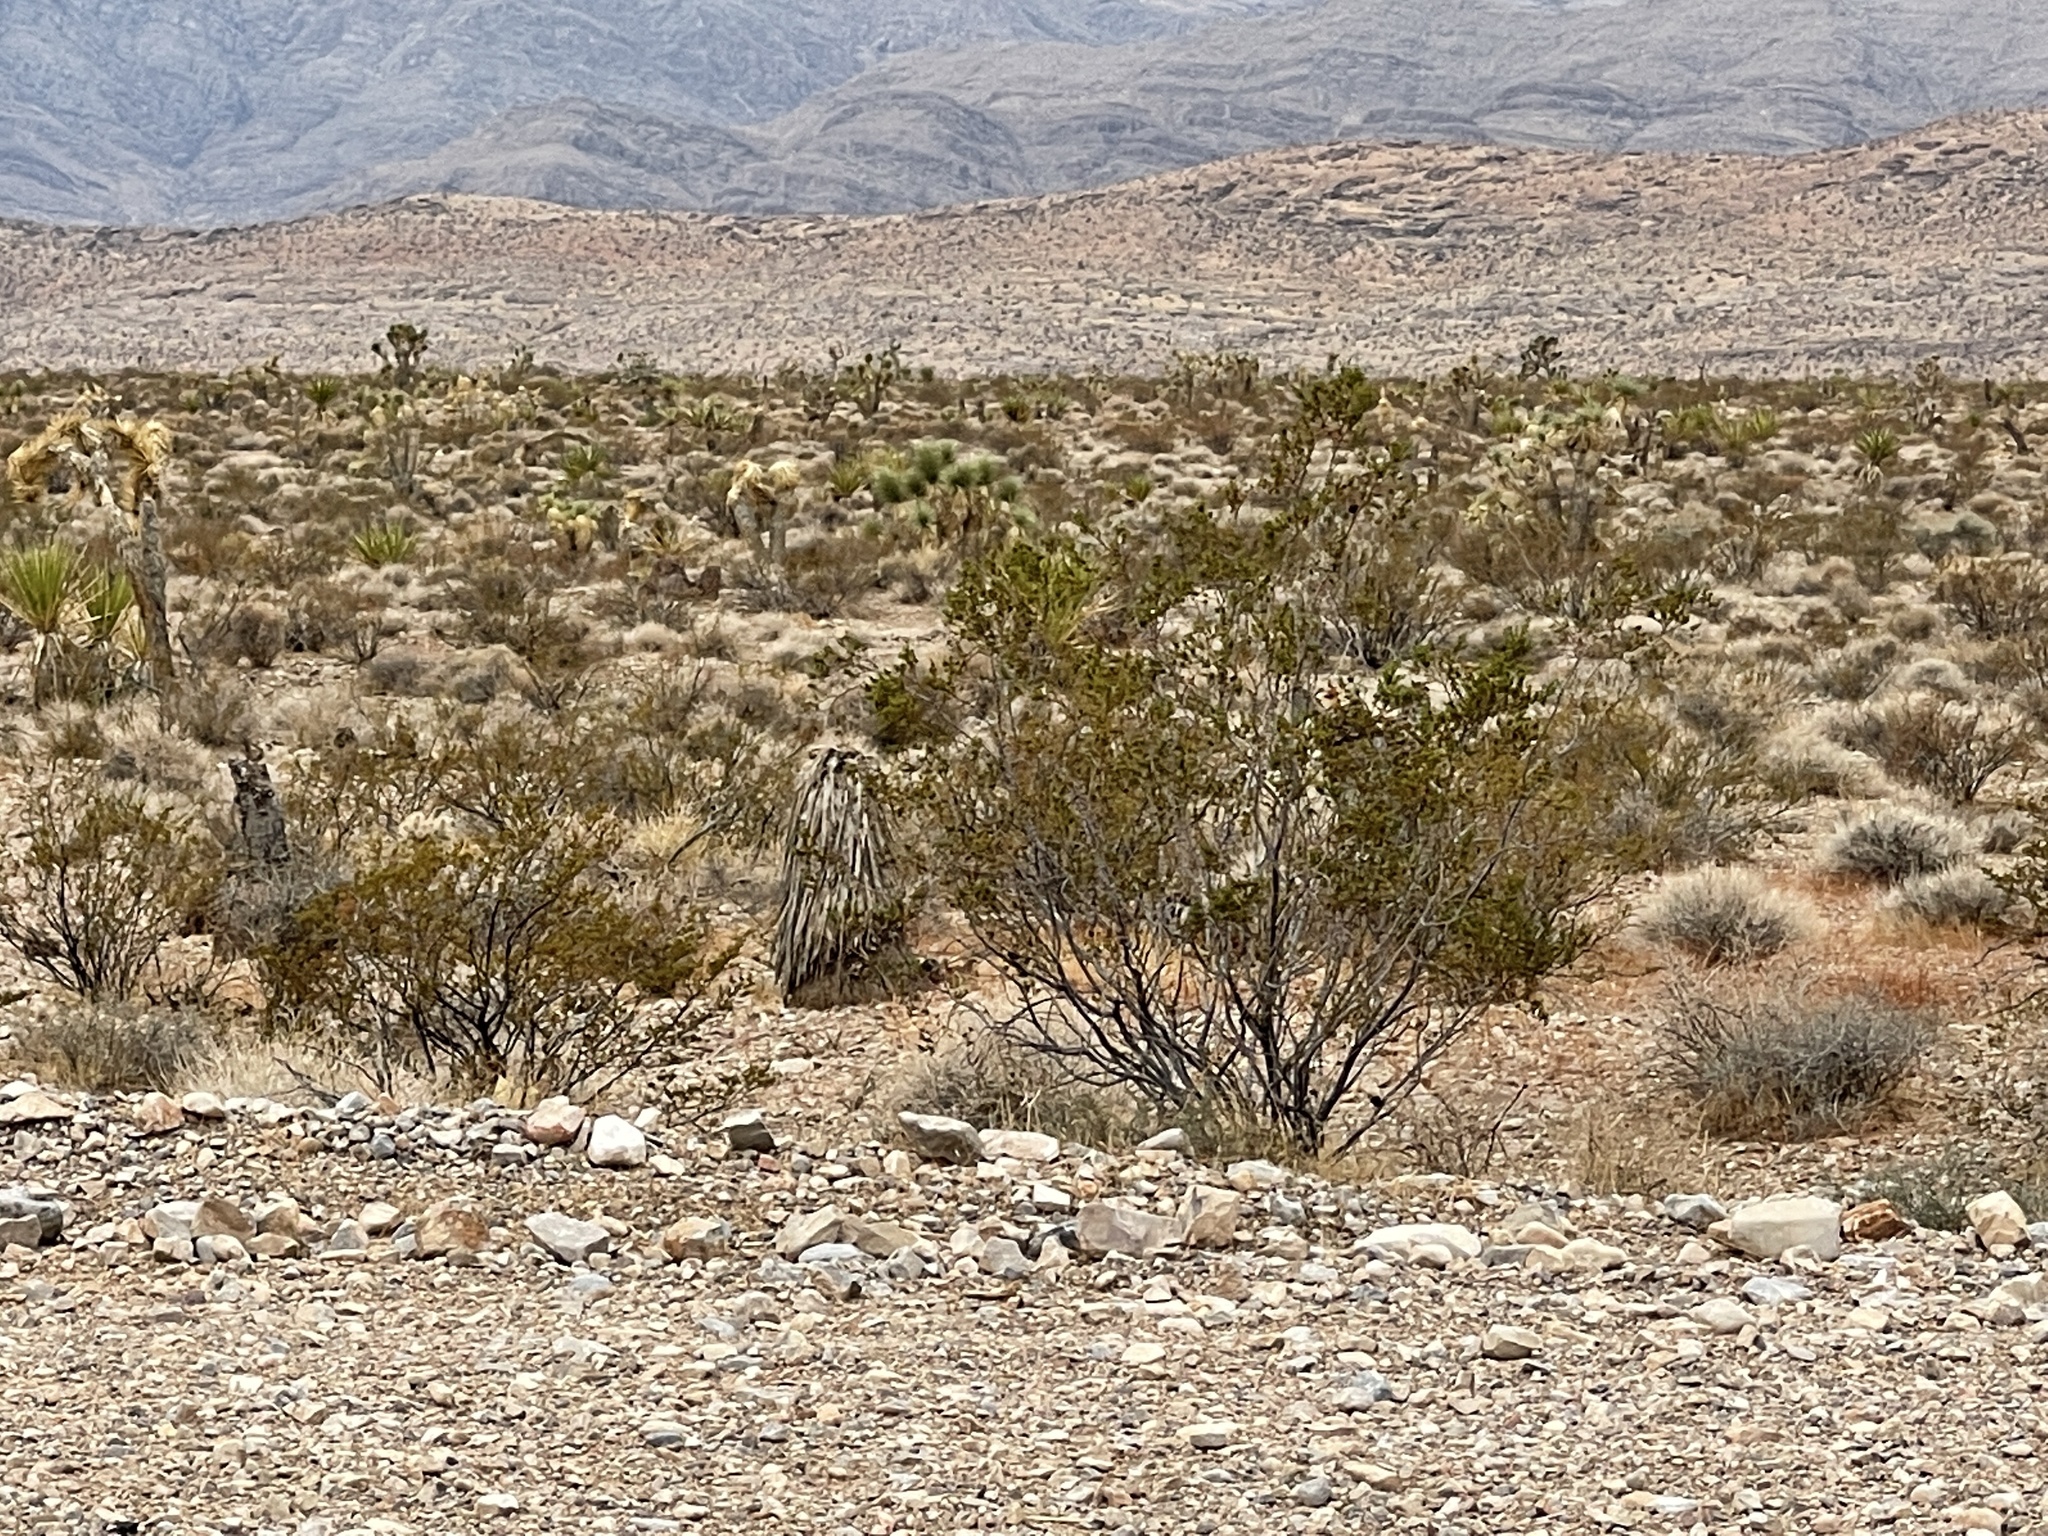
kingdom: Plantae
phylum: Tracheophyta
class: Magnoliopsida
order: Zygophyllales
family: Zygophyllaceae
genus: Larrea
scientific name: Larrea tridentata
